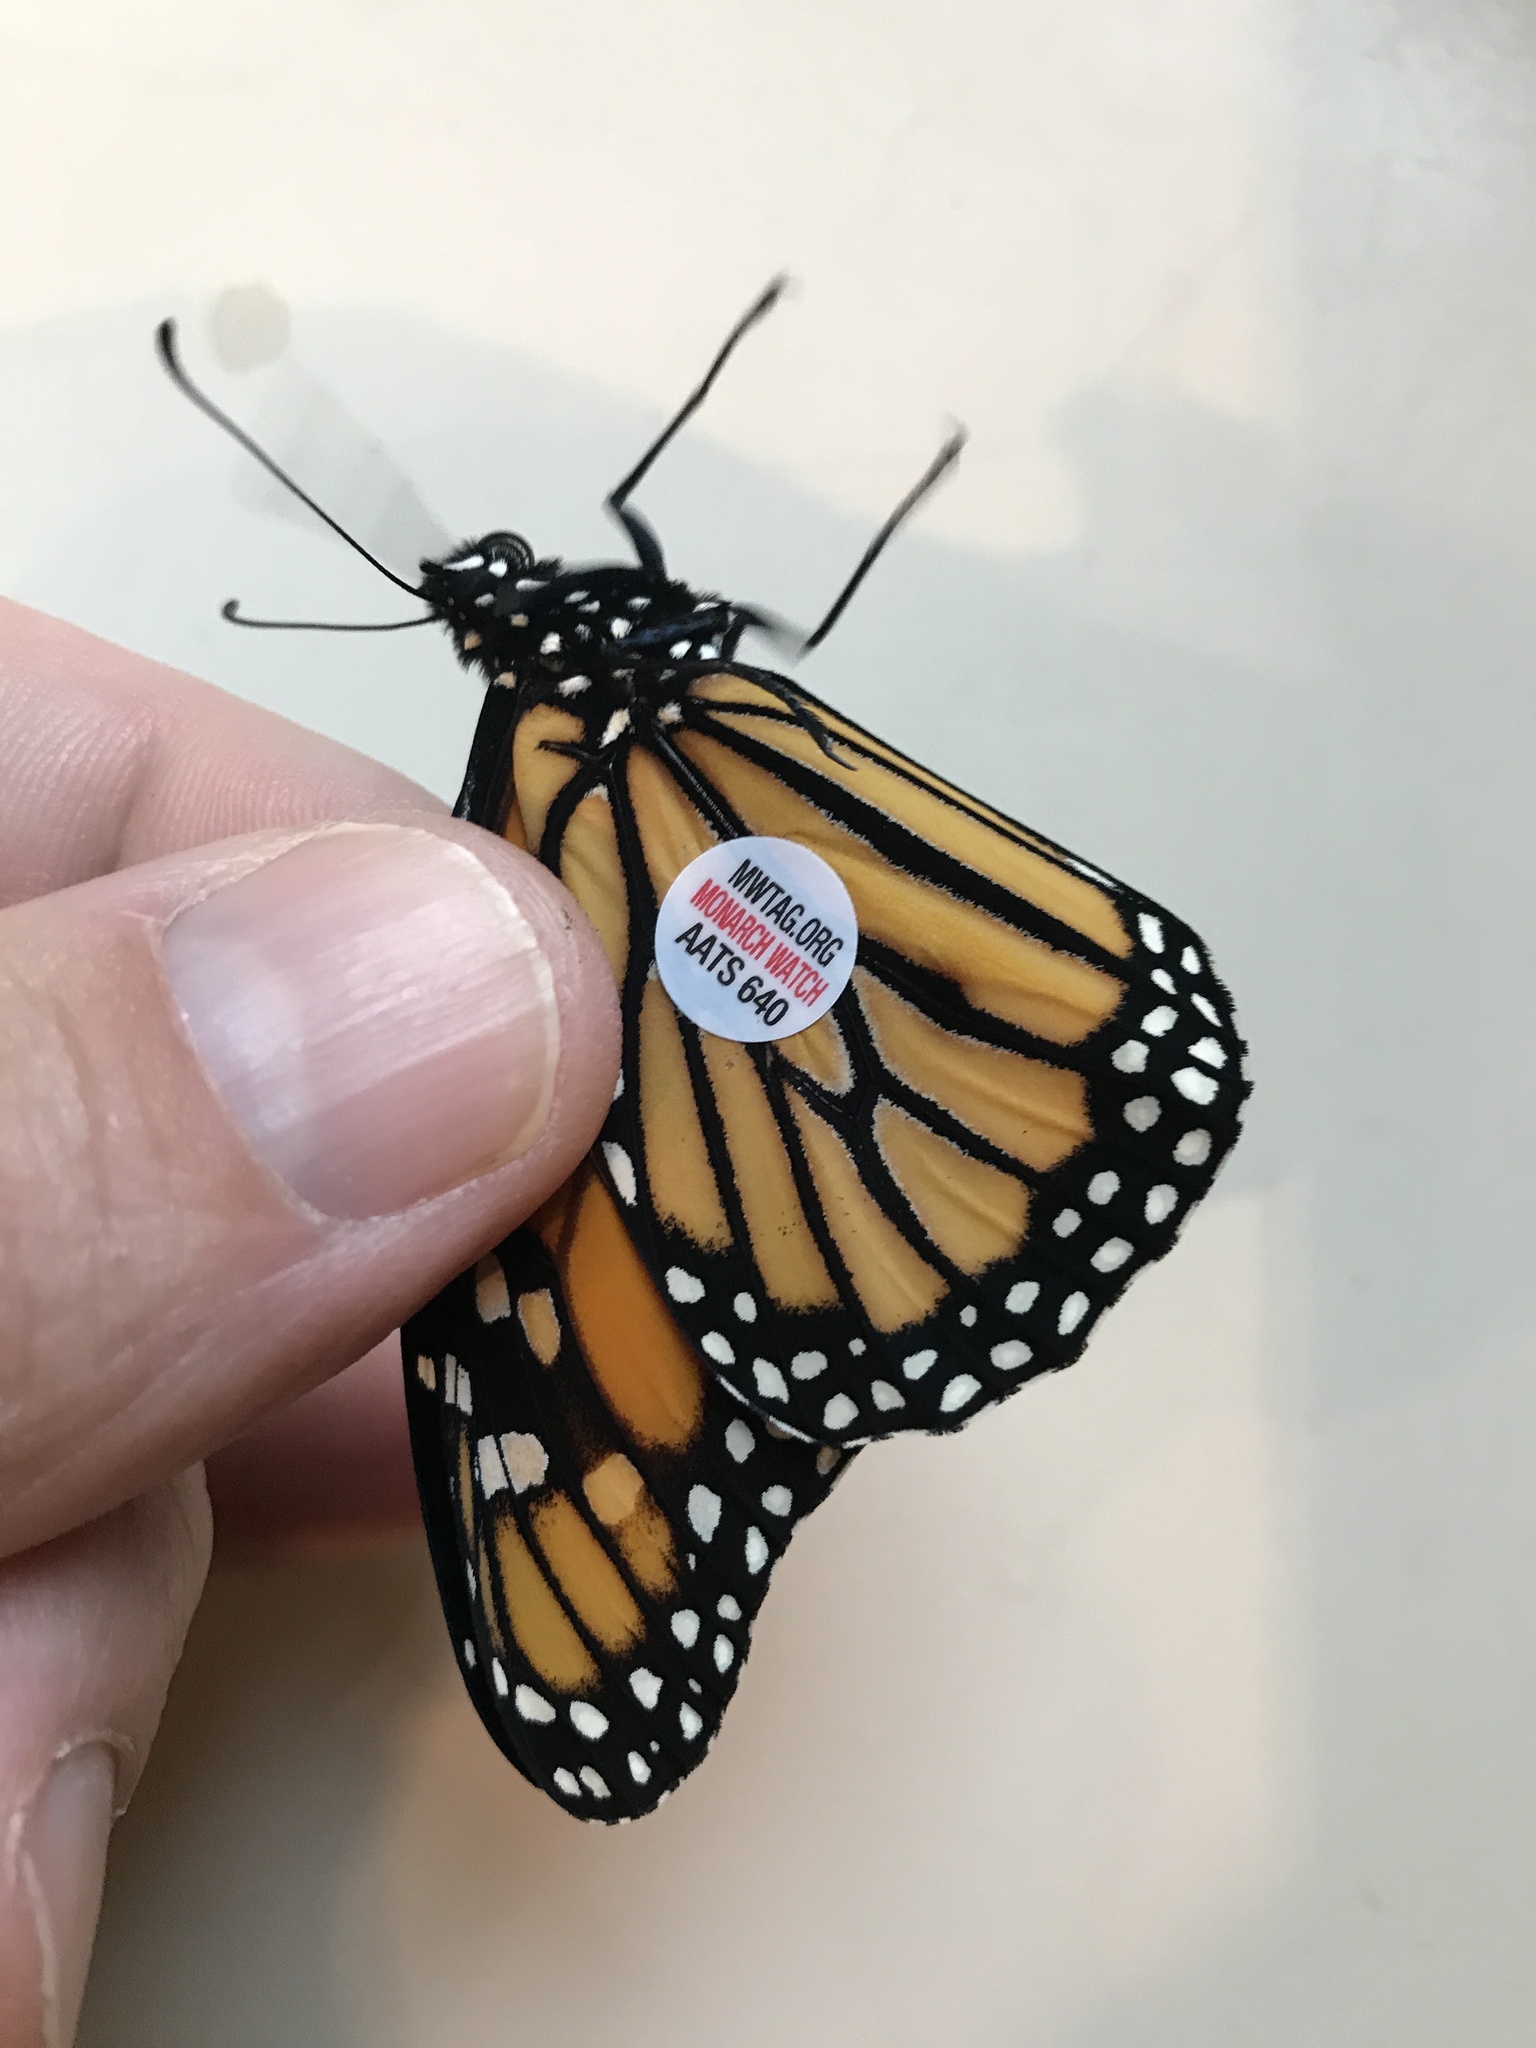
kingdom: Animalia
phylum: Arthropoda
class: Insecta
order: Lepidoptera
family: Nymphalidae
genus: Danaus
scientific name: Danaus plexippus
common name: Monarch
